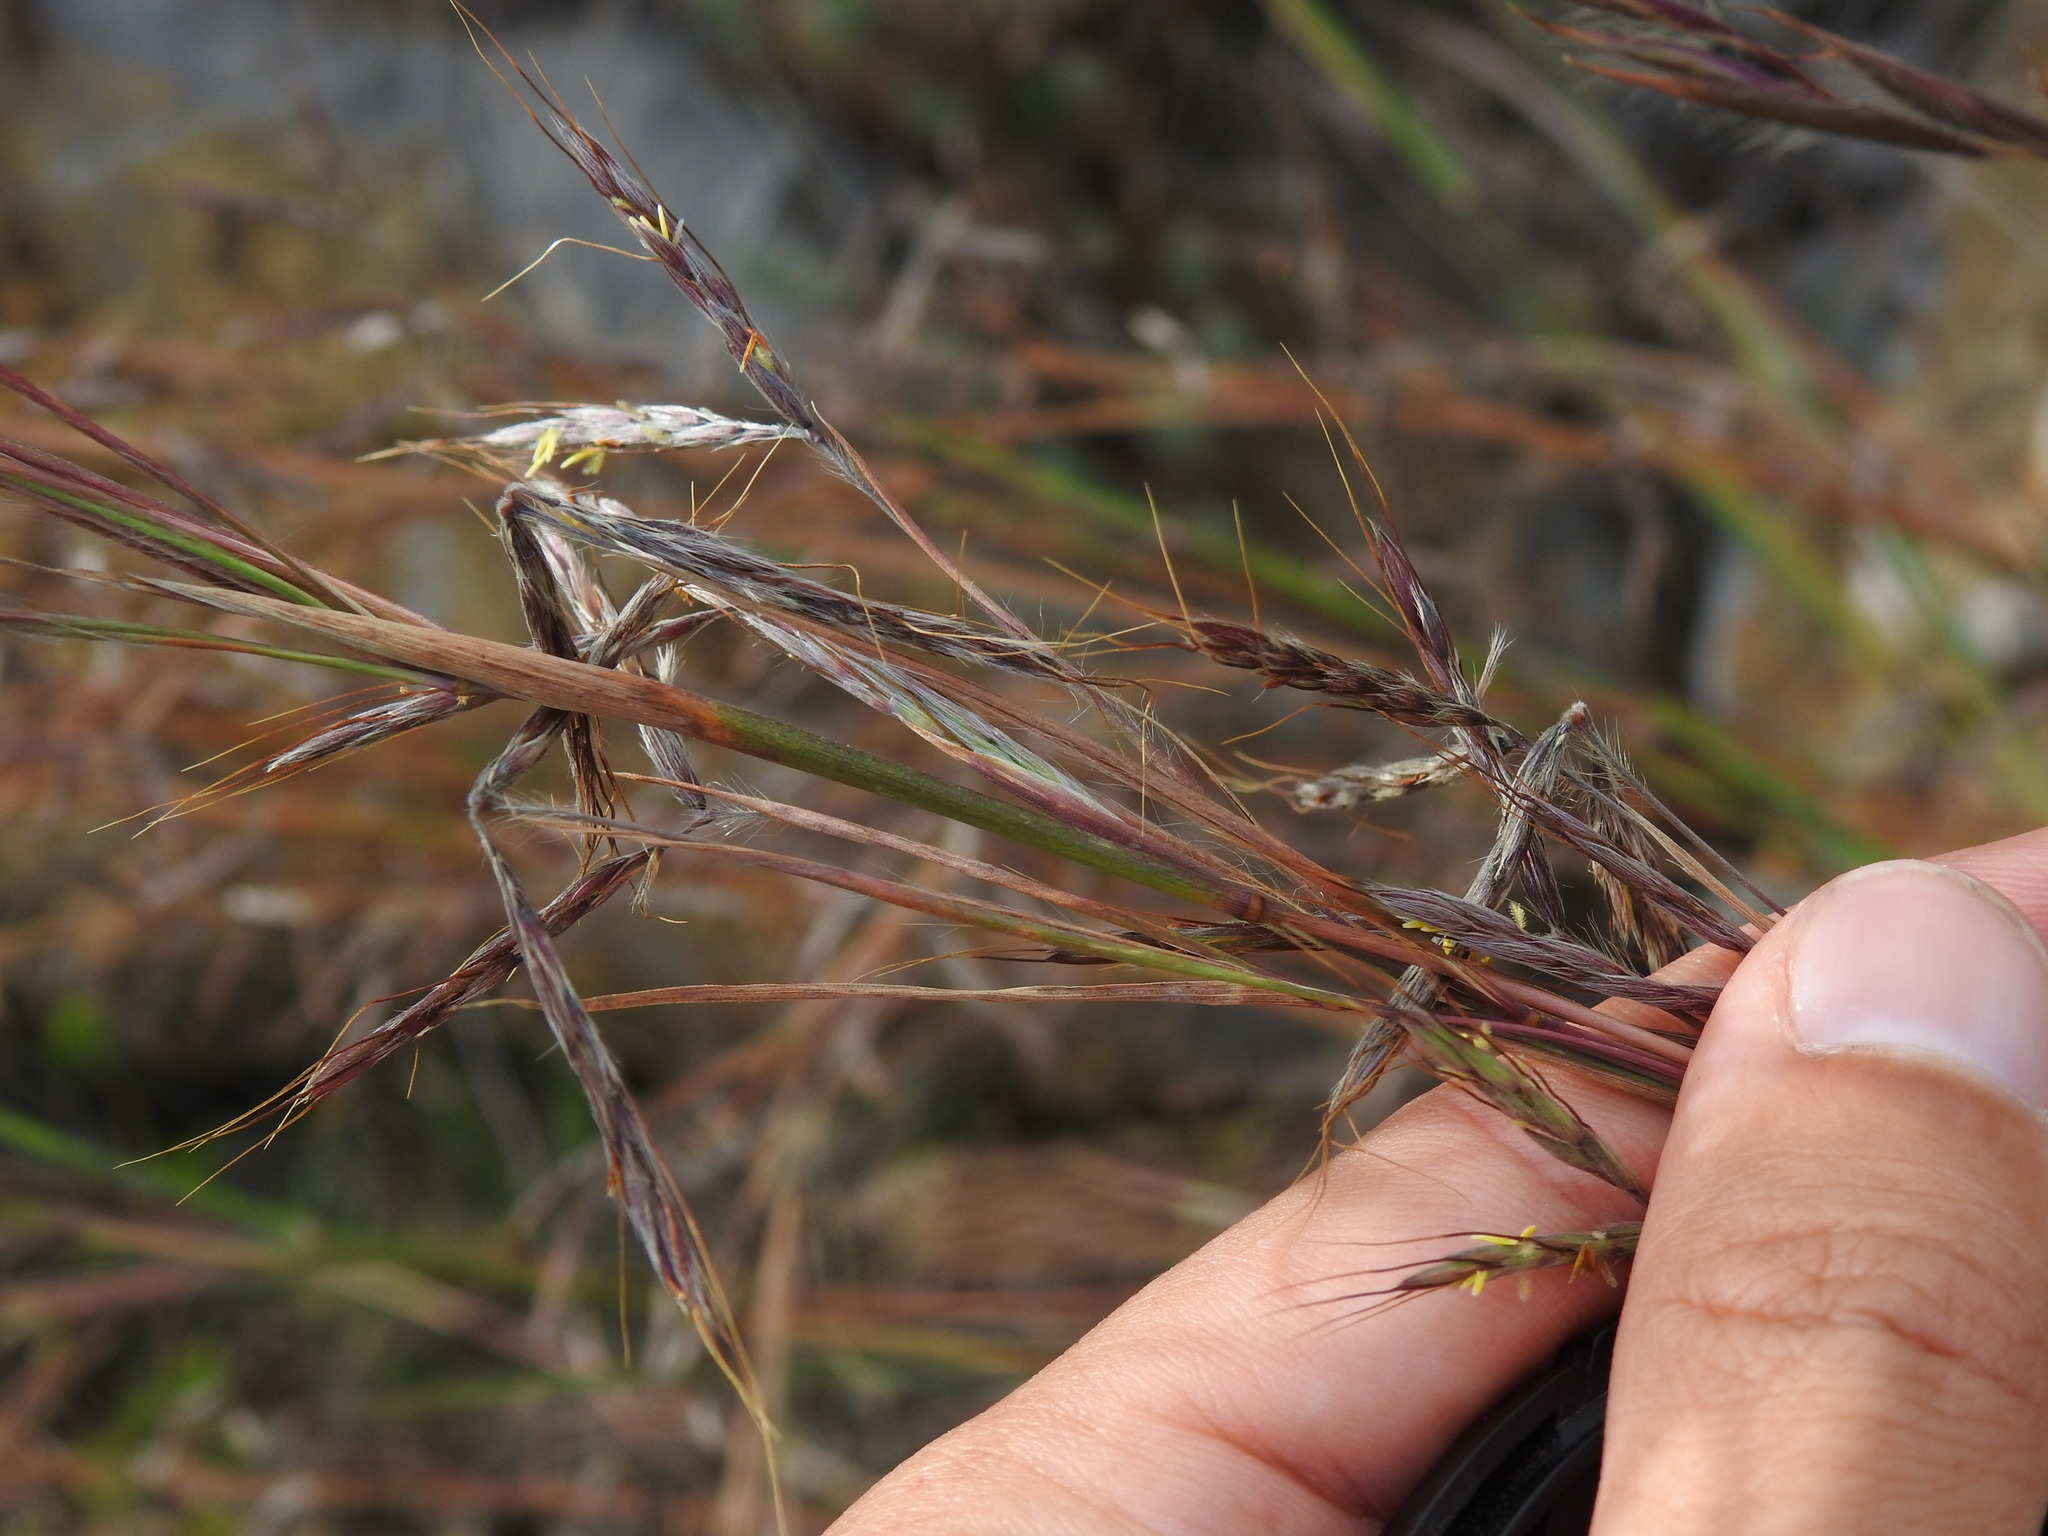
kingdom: Plantae
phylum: Tracheophyta
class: Liliopsida
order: Poales
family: Poaceae
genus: Hyparrhenia
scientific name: Hyparrhenia hirta
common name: Thatching grass
